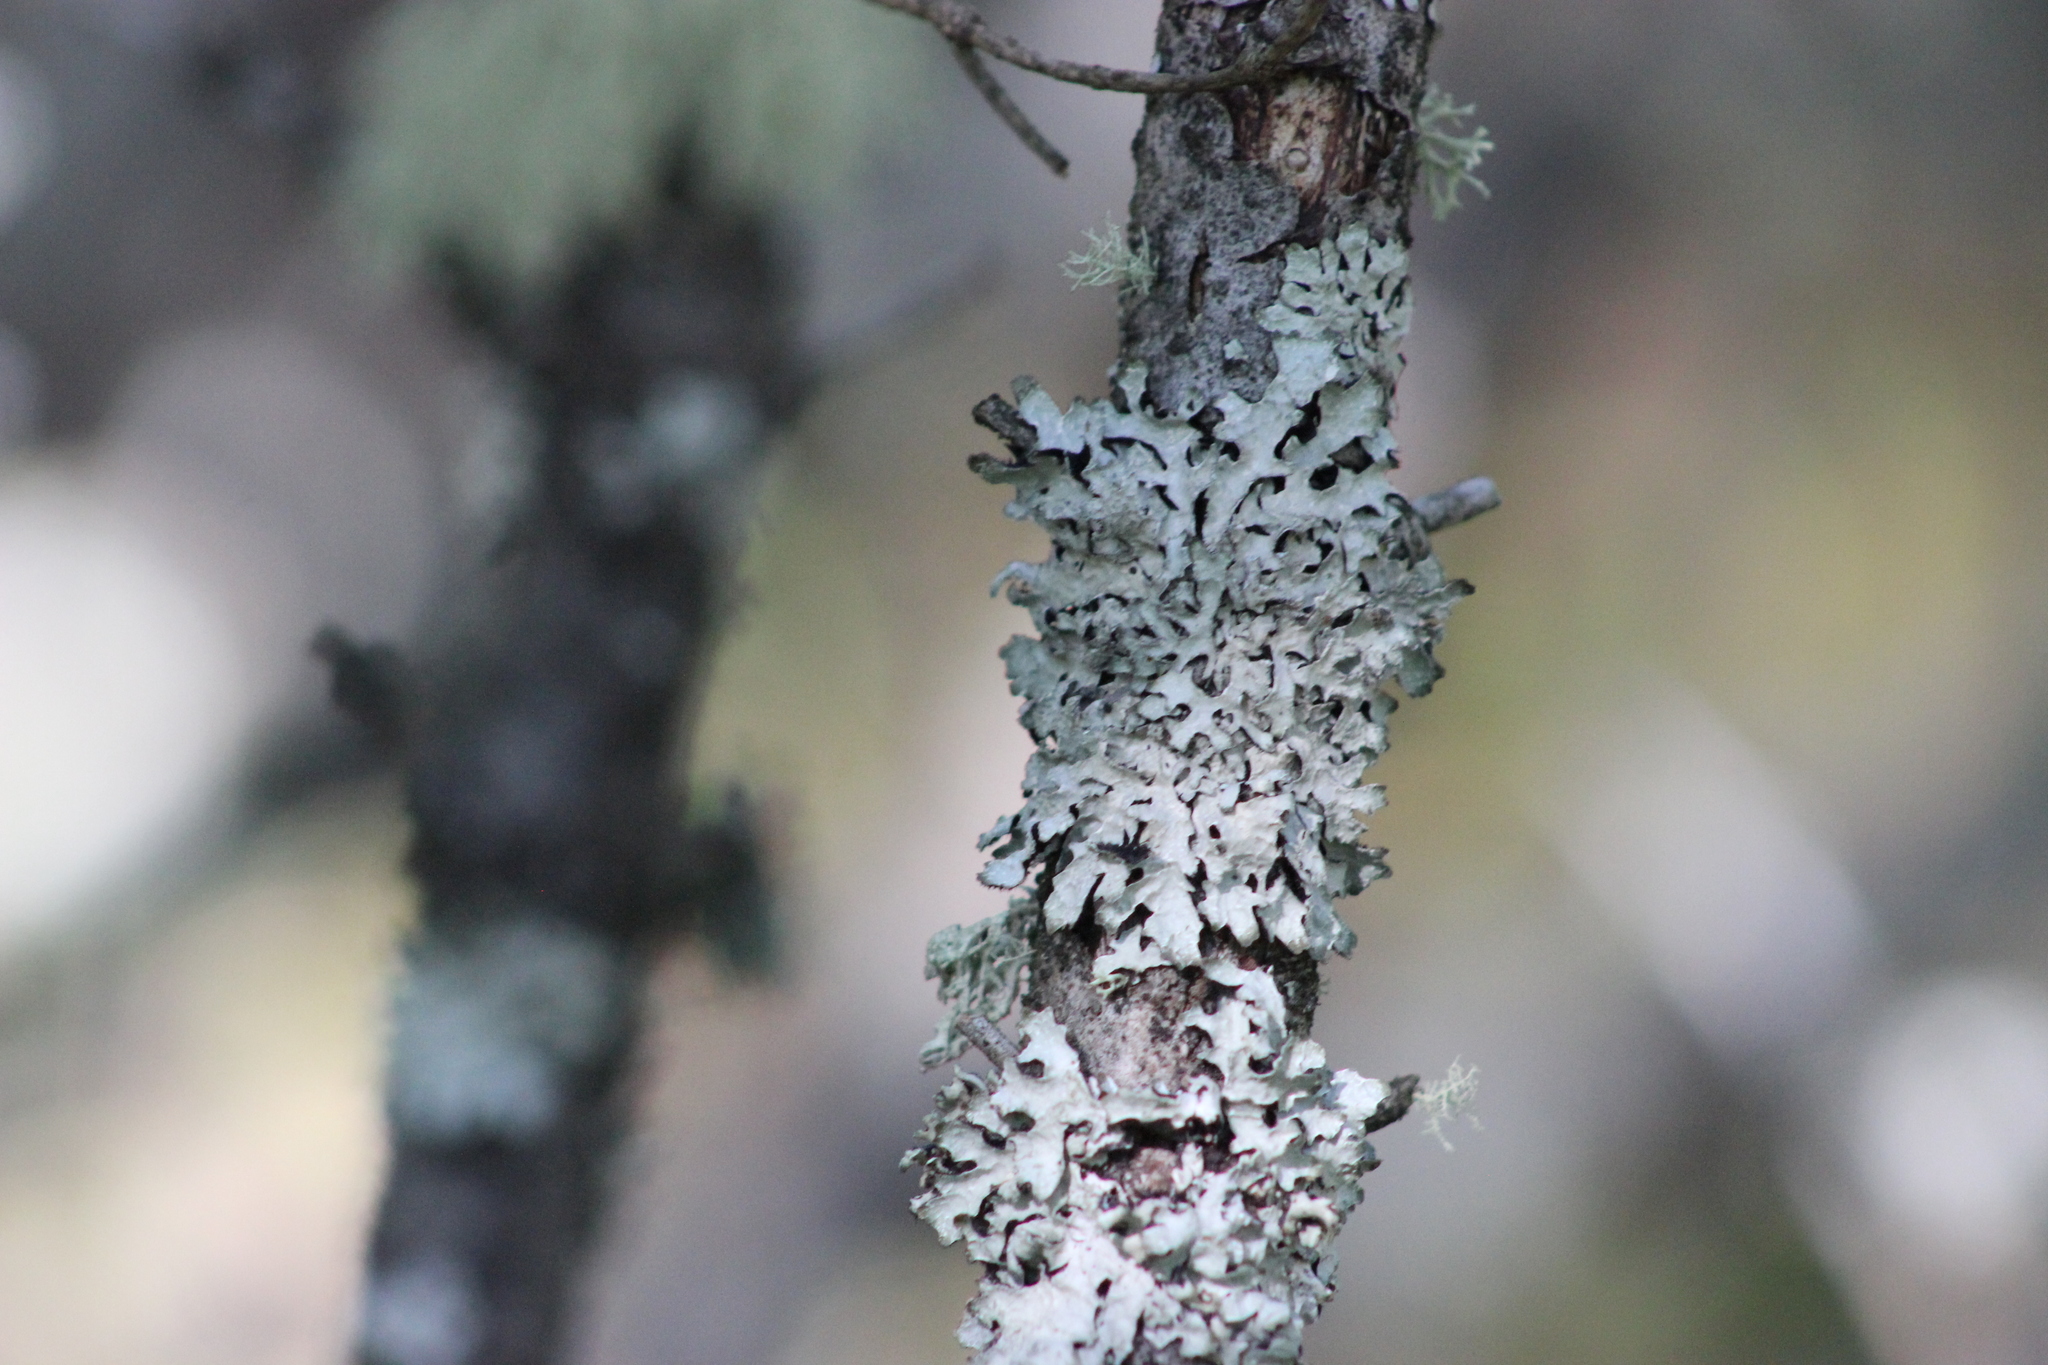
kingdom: Fungi
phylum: Ascomycota
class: Lecanoromycetes
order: Lecanorales
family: Parmeliaceae
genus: Parmelia
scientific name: Parmelia sulcata
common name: Netted shield lichen
